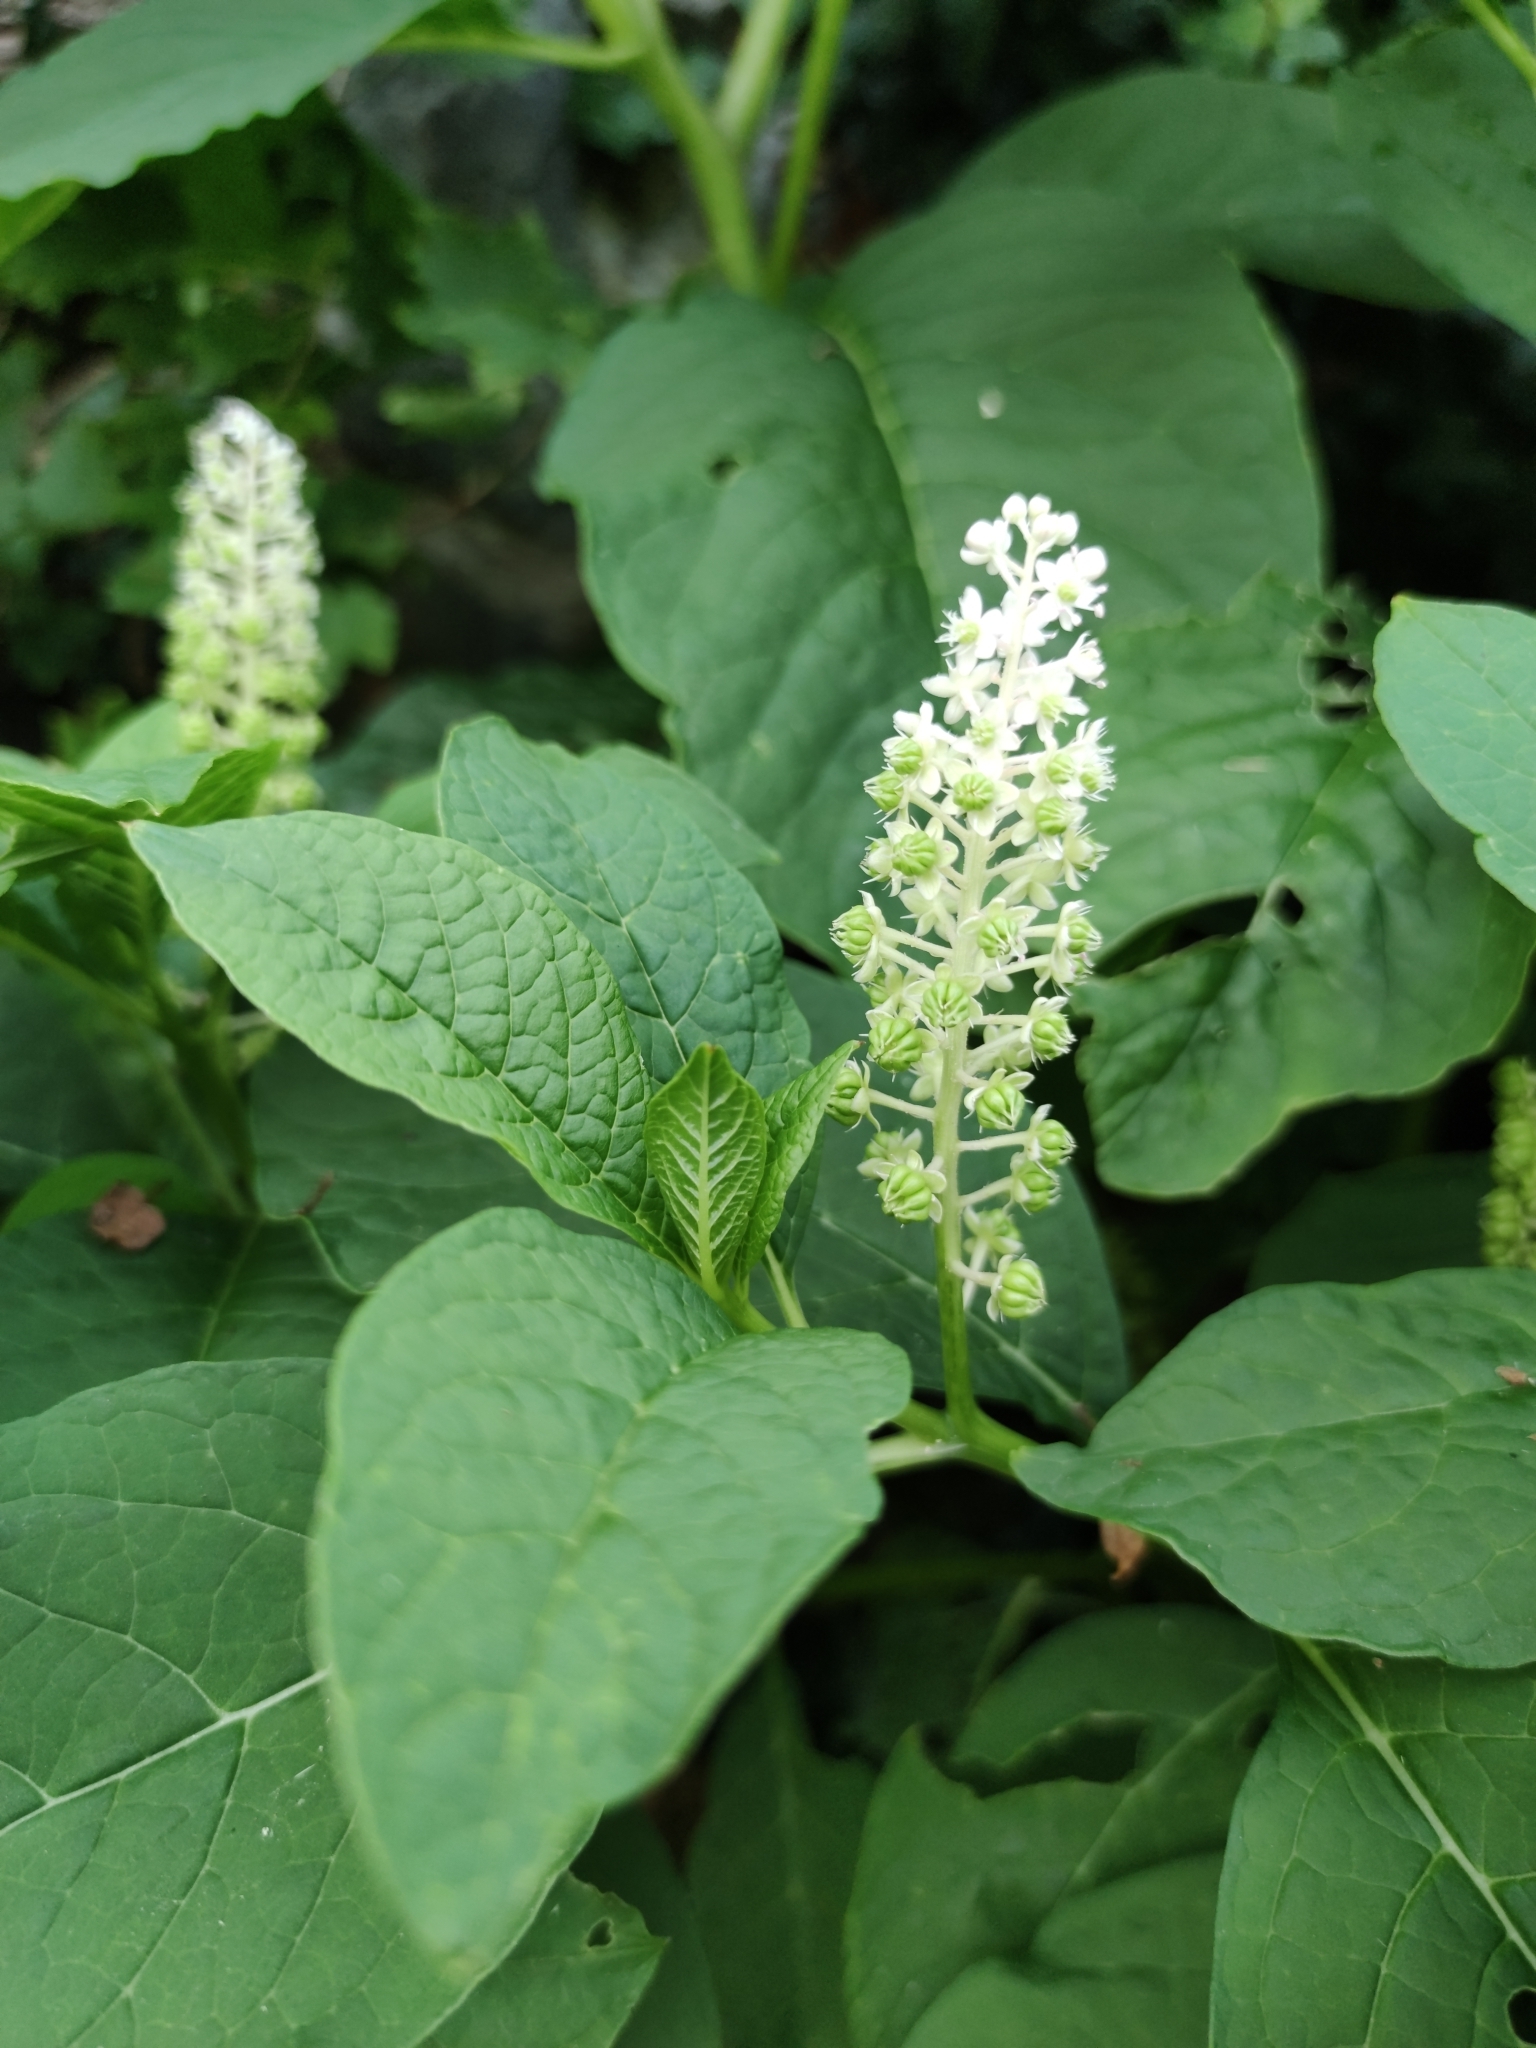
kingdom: Plantae
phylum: Tracheophyta
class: Magnoliopsida
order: Caryophyllales
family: Phytolaccaceae
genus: Phytolacca
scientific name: Phytolacca acinosa
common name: Indian pokeweed
